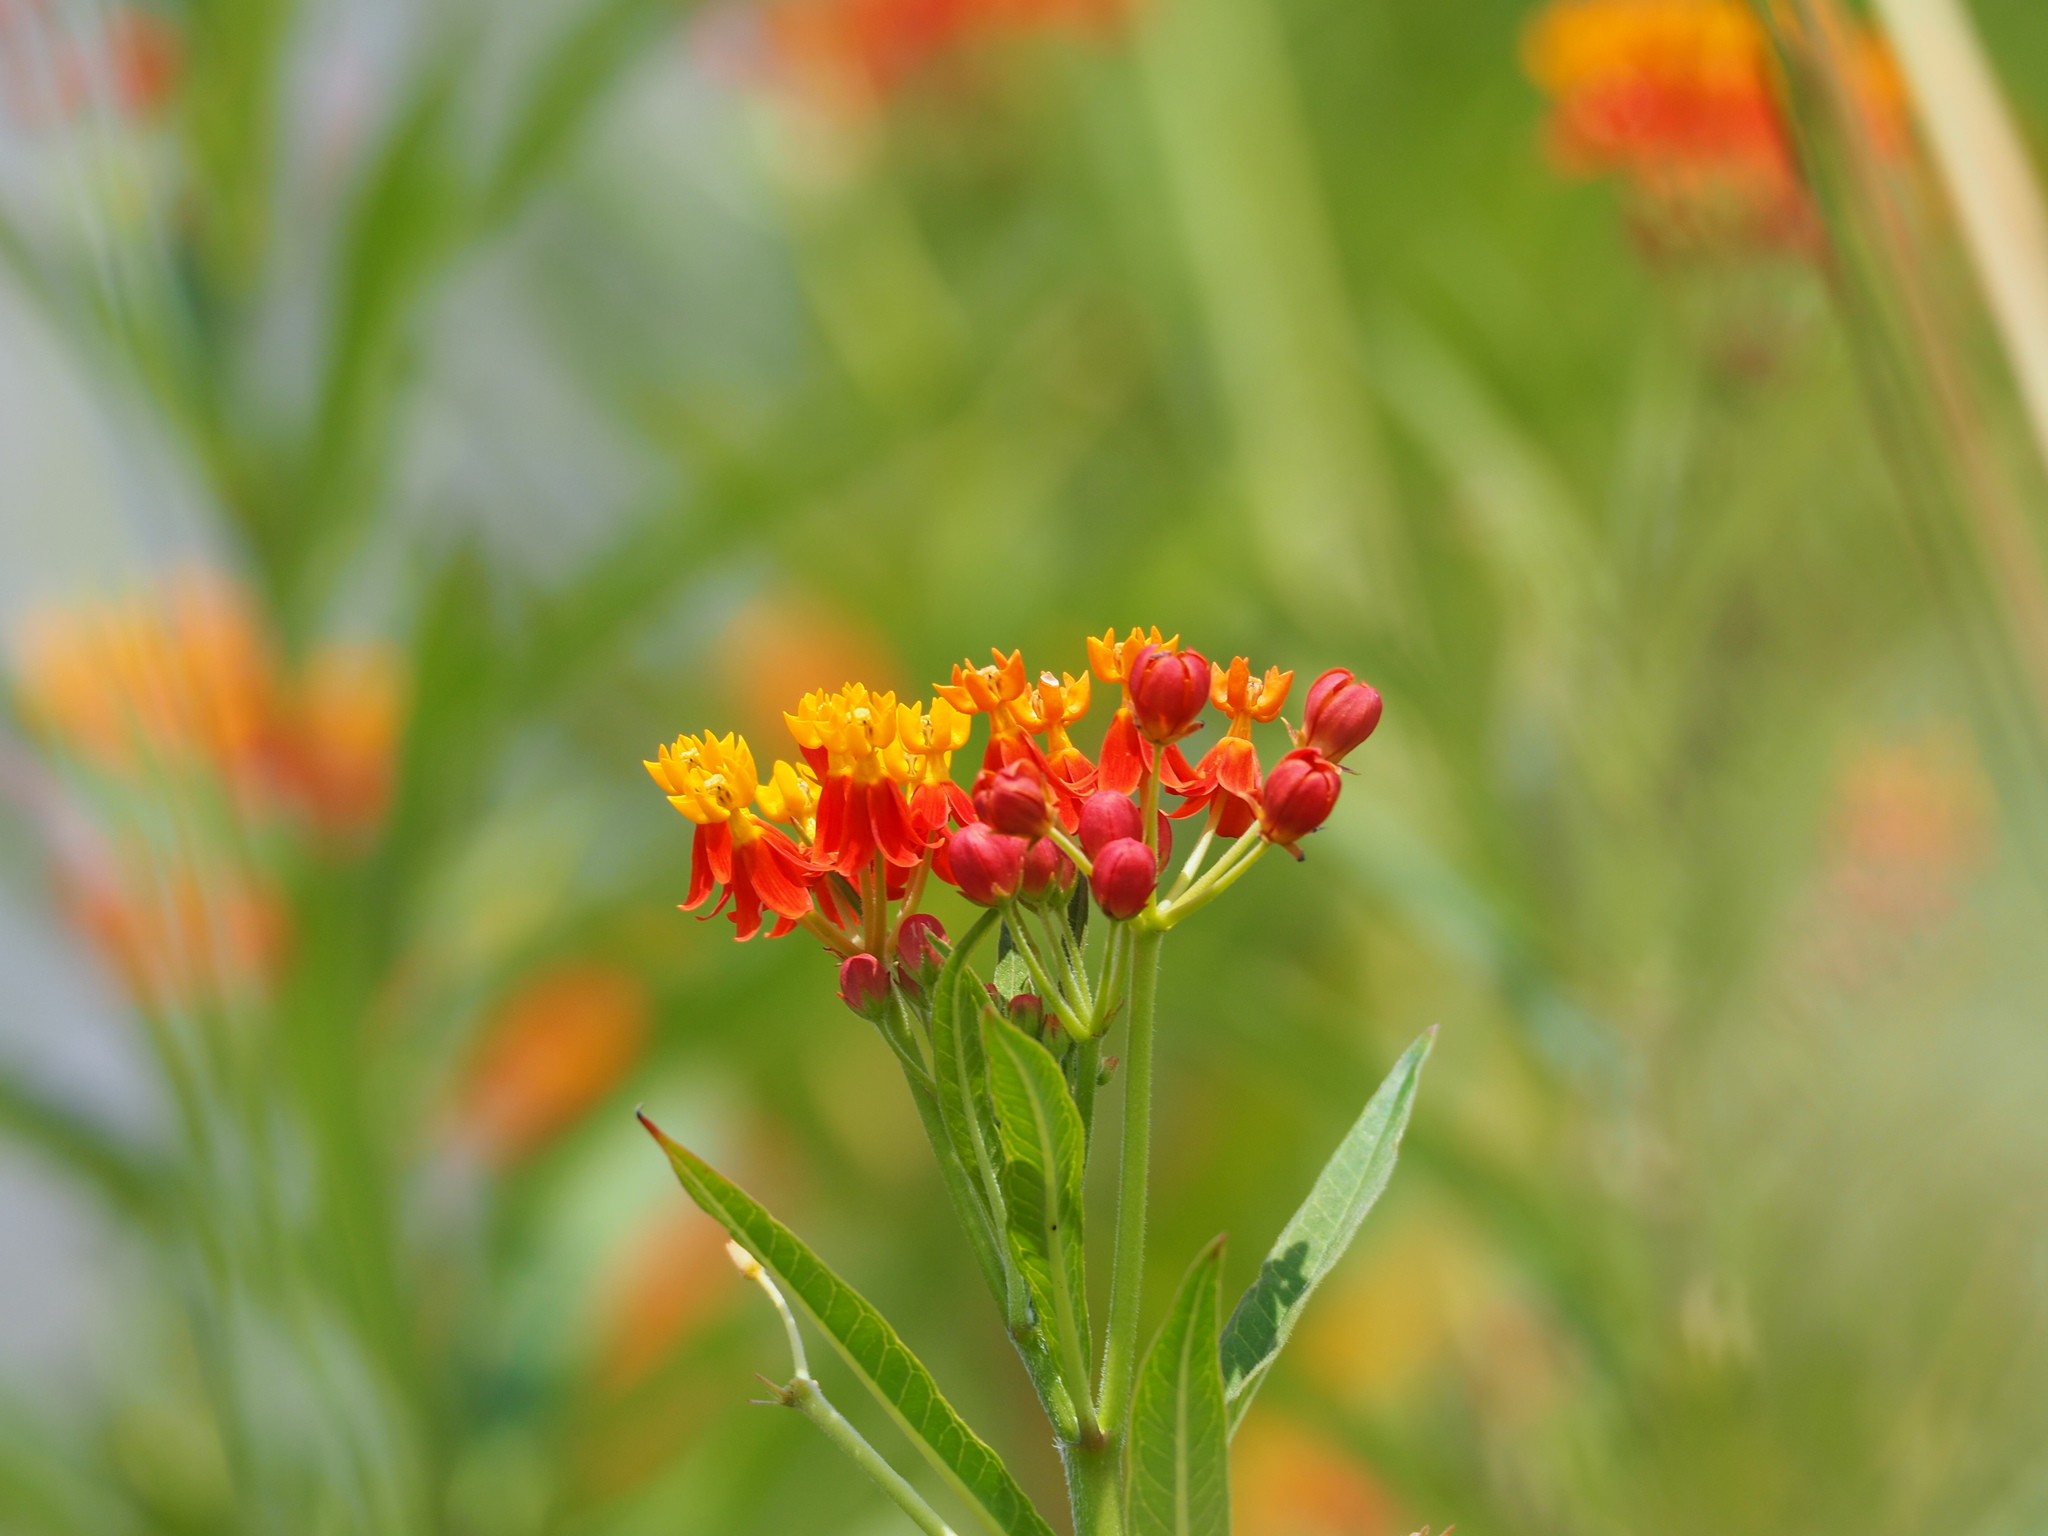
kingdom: Plantae
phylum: Tracheophyta
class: Magnoliopsida
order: Gentianales
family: Apocynaceae
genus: Asclepias
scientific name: Asclepias curassavica
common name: Bloodflower
